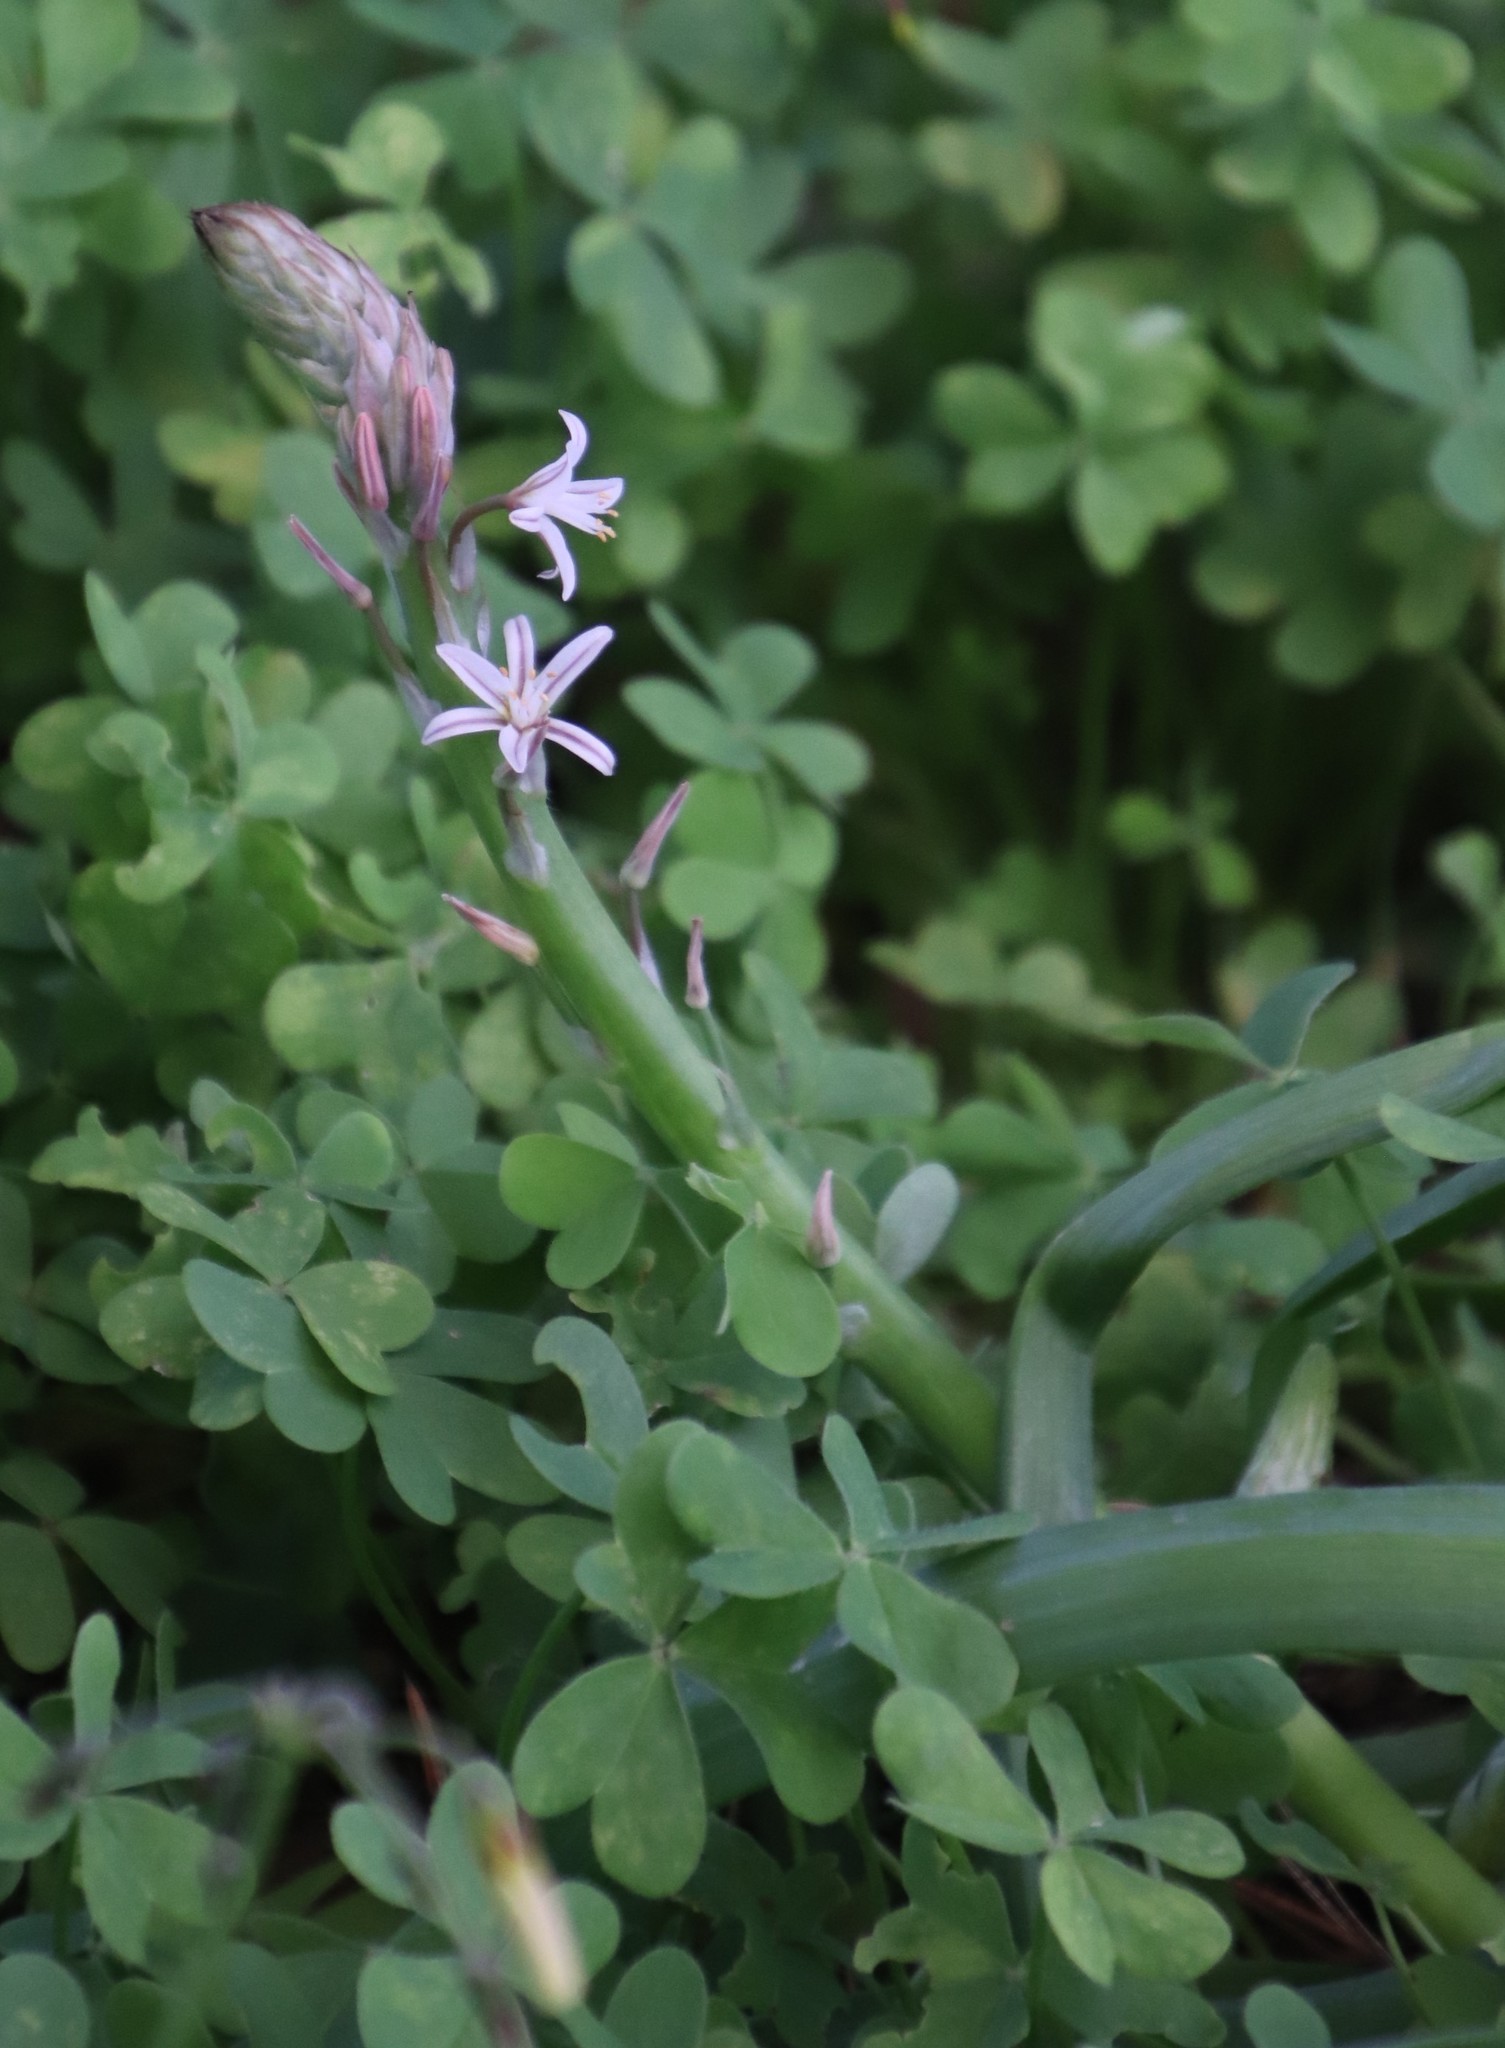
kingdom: Plantae
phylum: Tracheophyta
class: Liliopsida
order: Asparagales
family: Asphodelaceae
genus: Trachyandra
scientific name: Trachyandra ciliata
